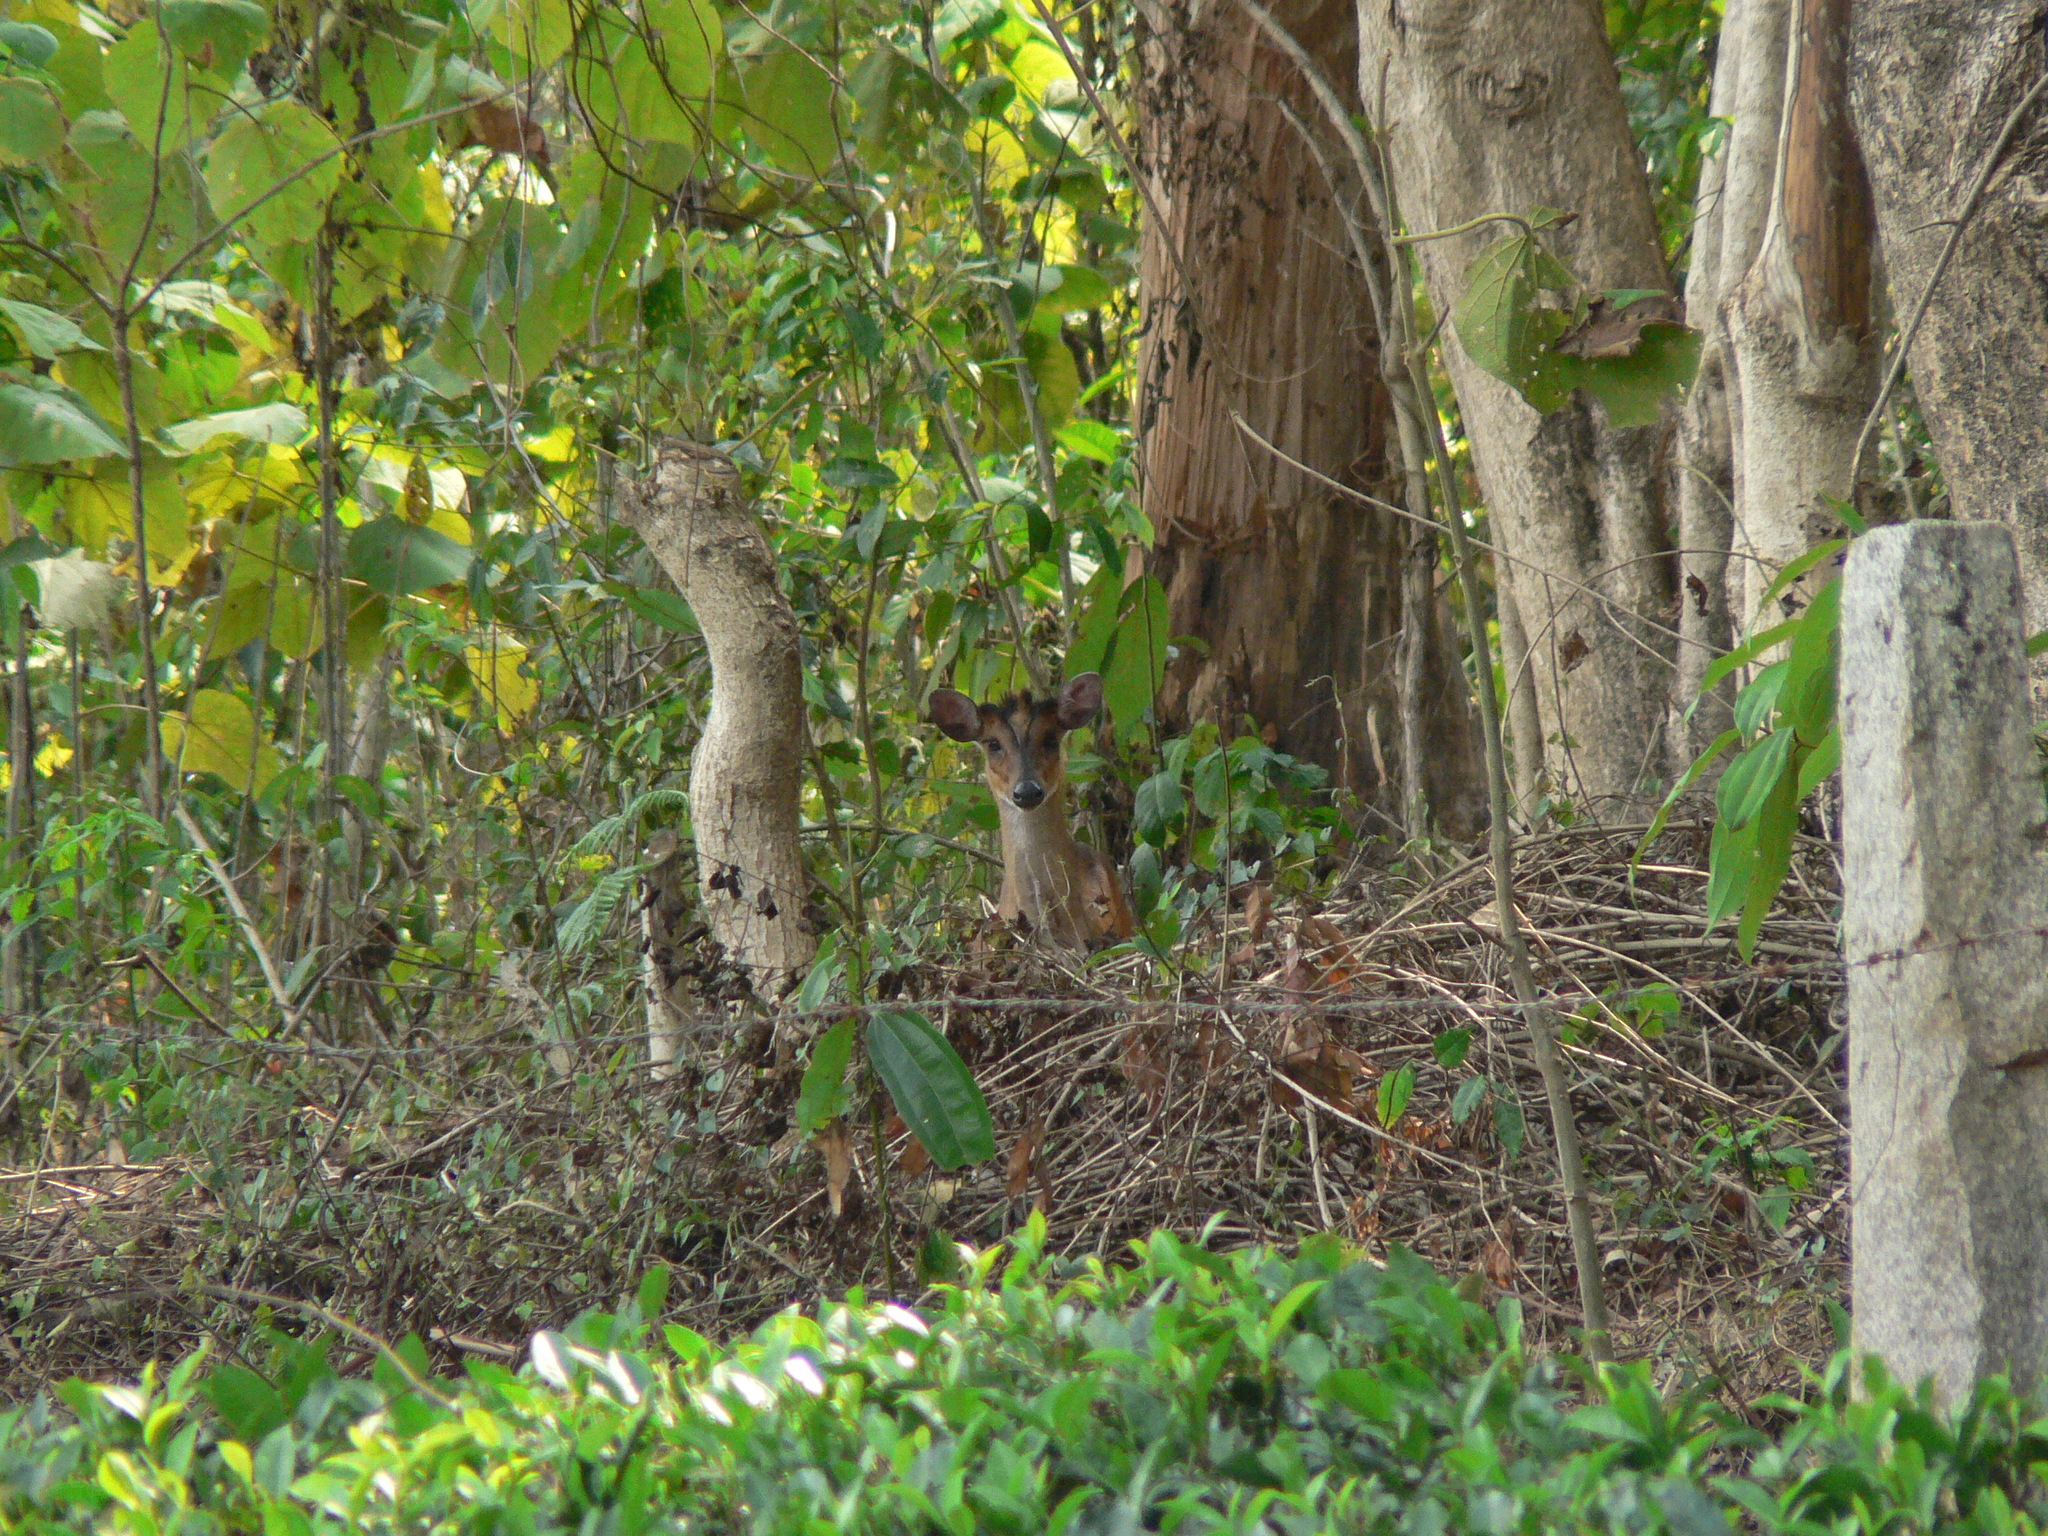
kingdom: Animalia
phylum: Chordata
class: Mammalia
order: Artiodactyla
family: Cervidae
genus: Muntiacus
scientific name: Muntiacus muntjak
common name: Indian muntjac
